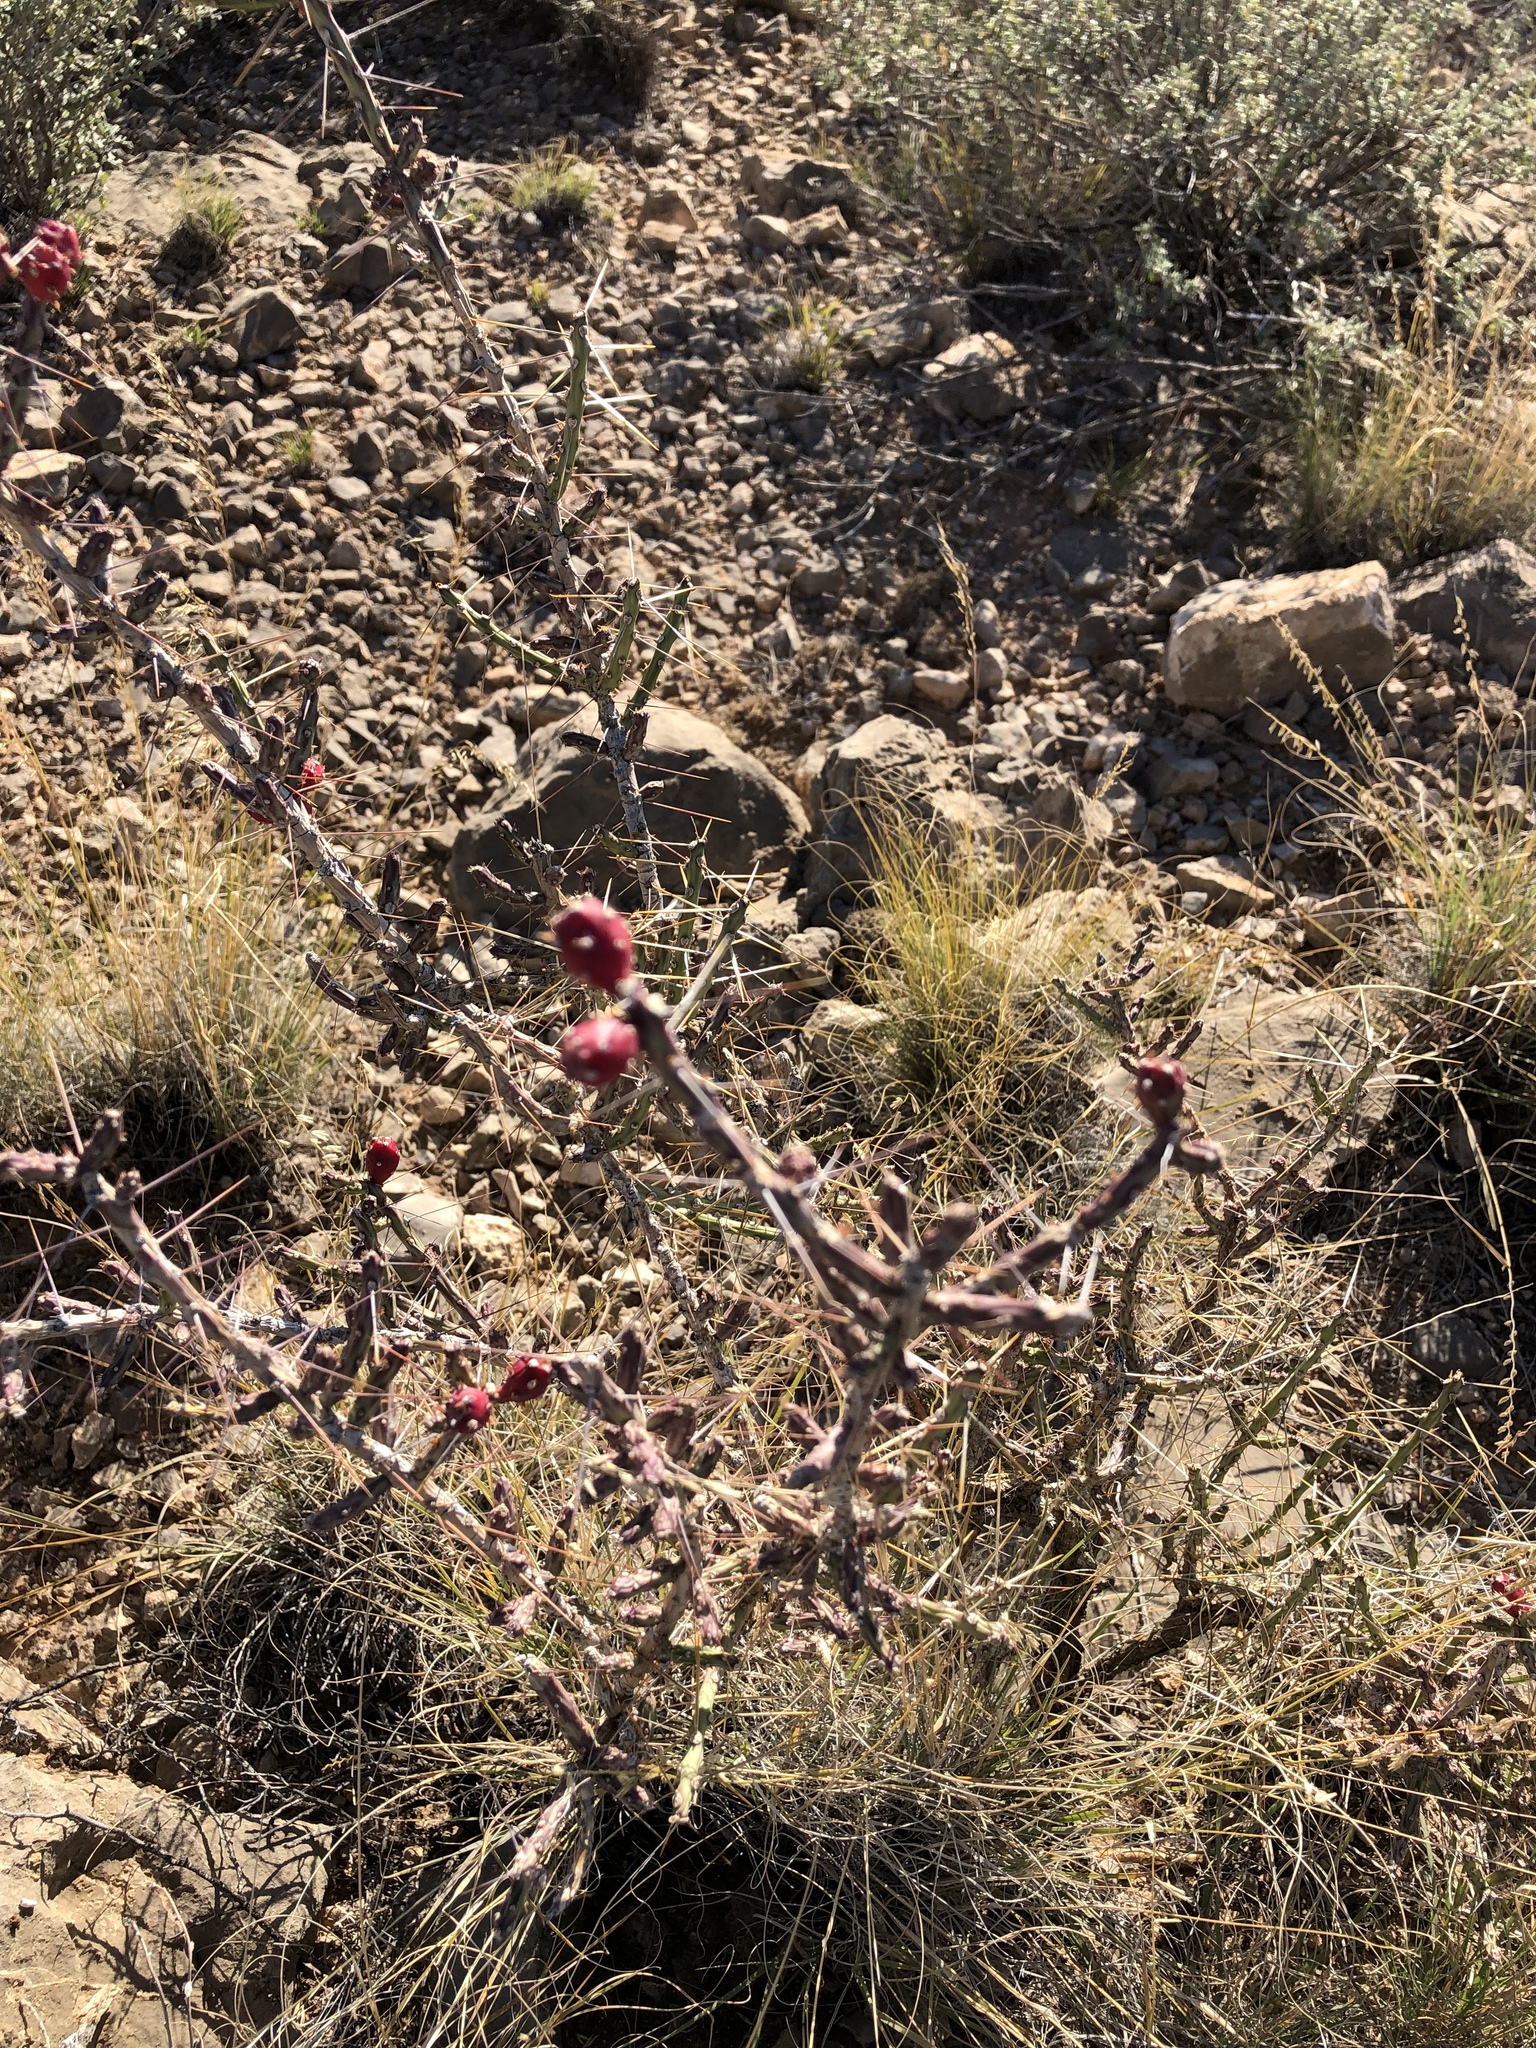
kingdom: Plantae
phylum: Tracheophyta
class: Magnoliopsida
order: Caryophyllales
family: Cactaceae
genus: Cylindropuntia
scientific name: Cylindropuntia leptocaulis
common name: Christmas cactus
